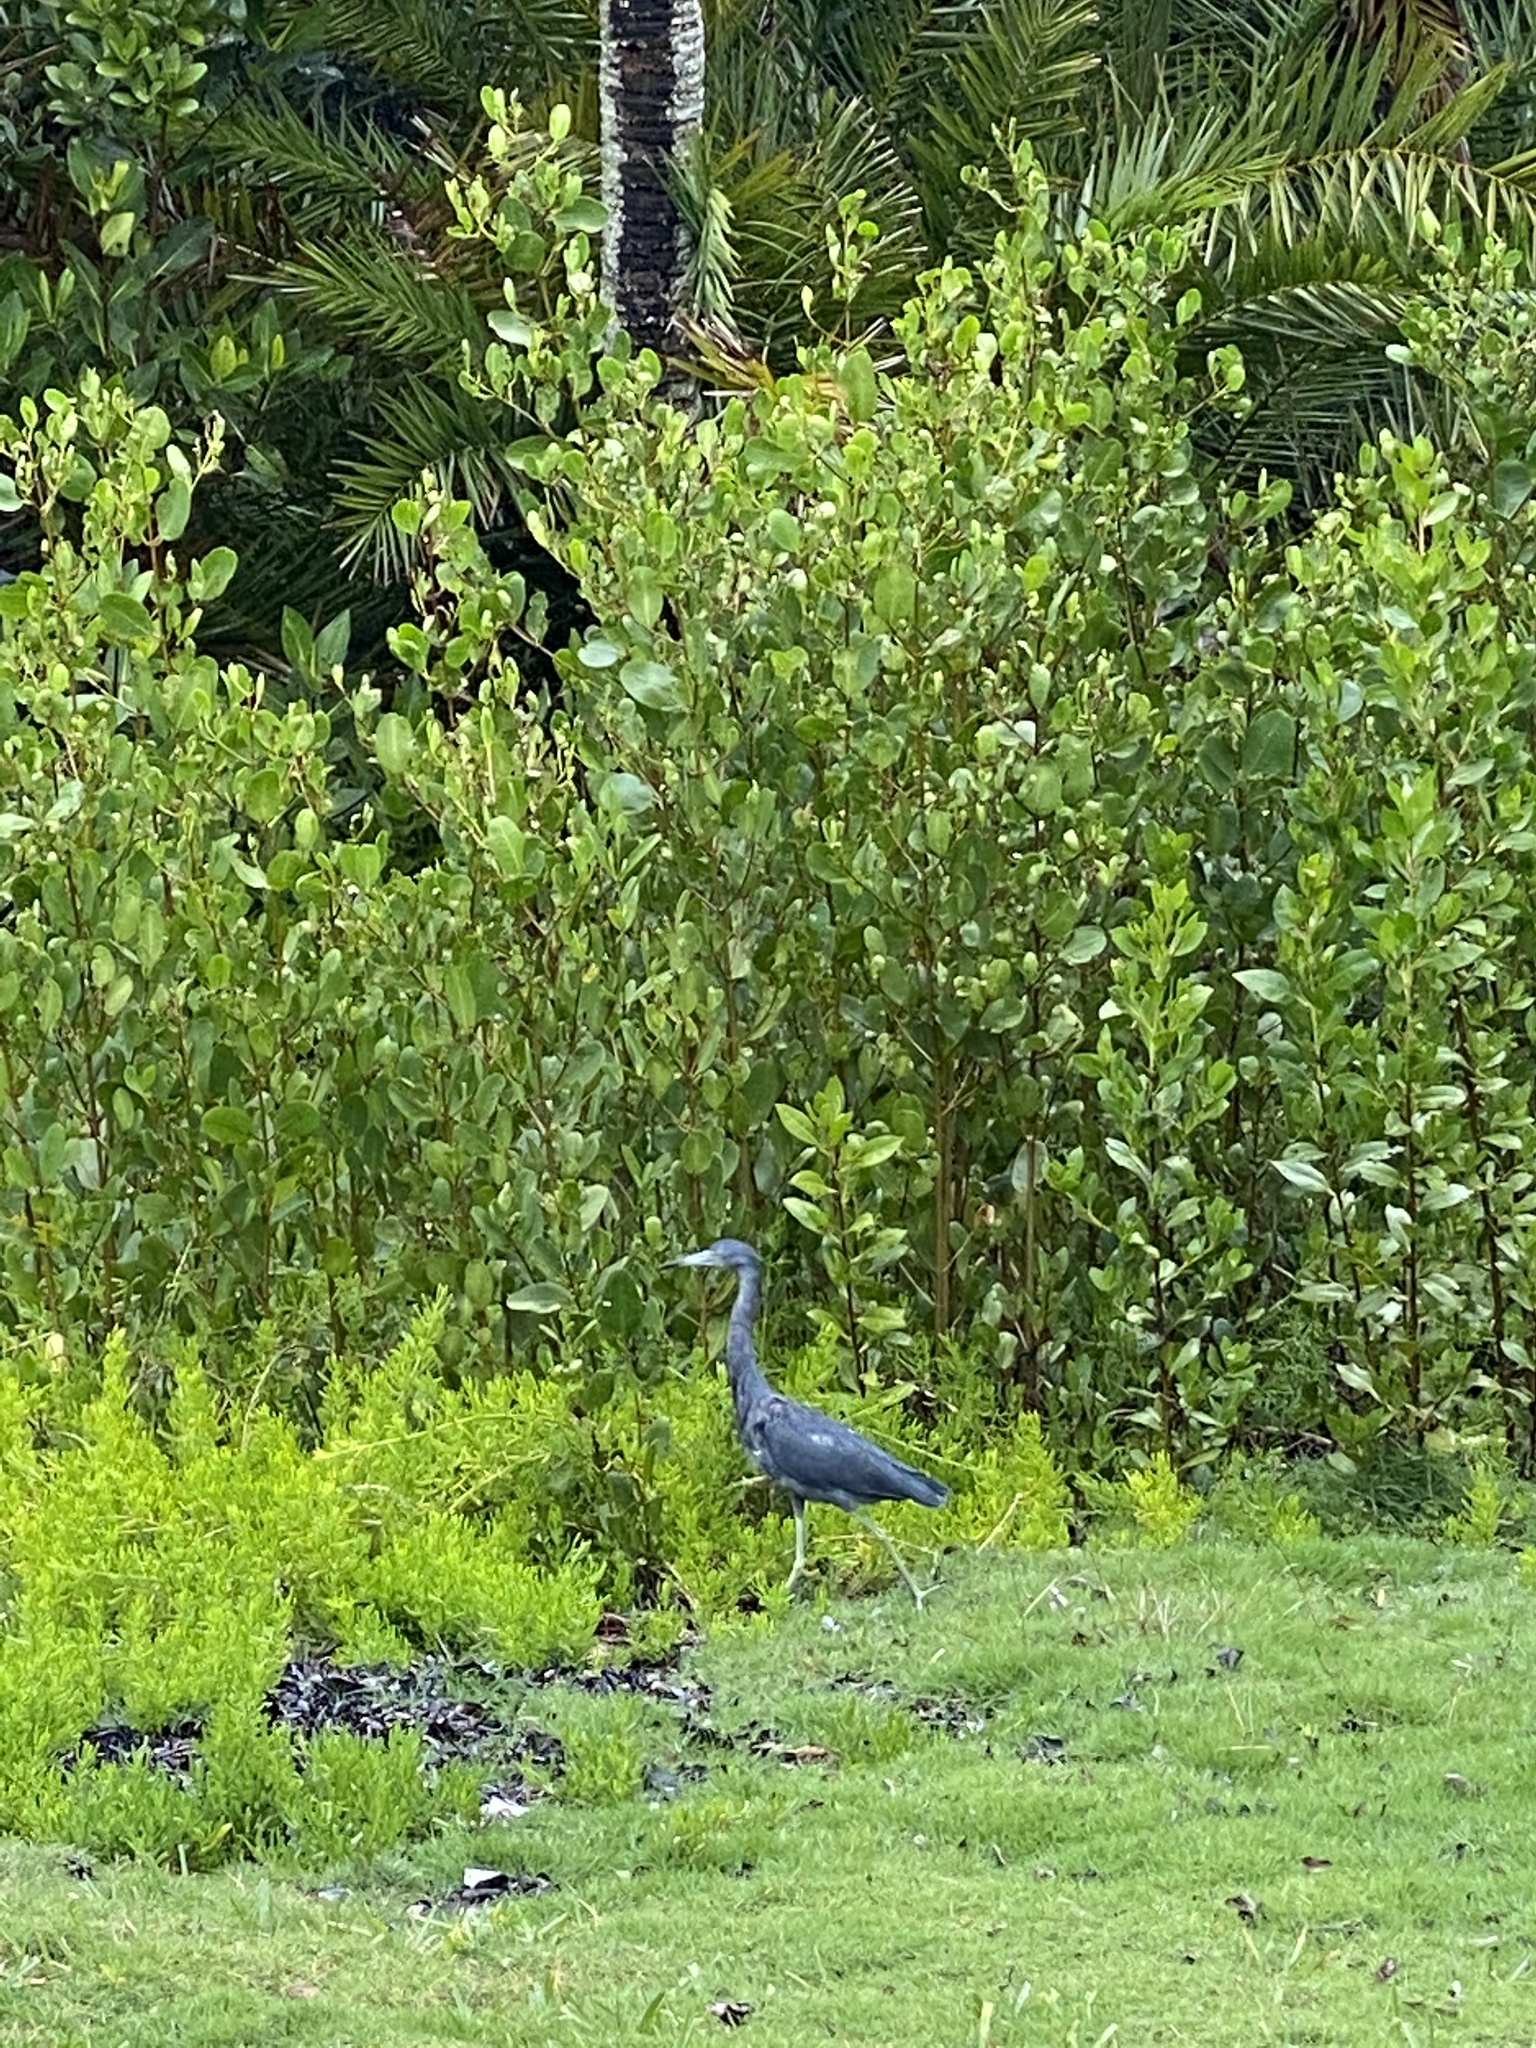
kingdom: Animalia
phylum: Chordata
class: Aves
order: Pelecaniformes
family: Ardeidae
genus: Egretta
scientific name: Egretta caerulea
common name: Little blue heron
